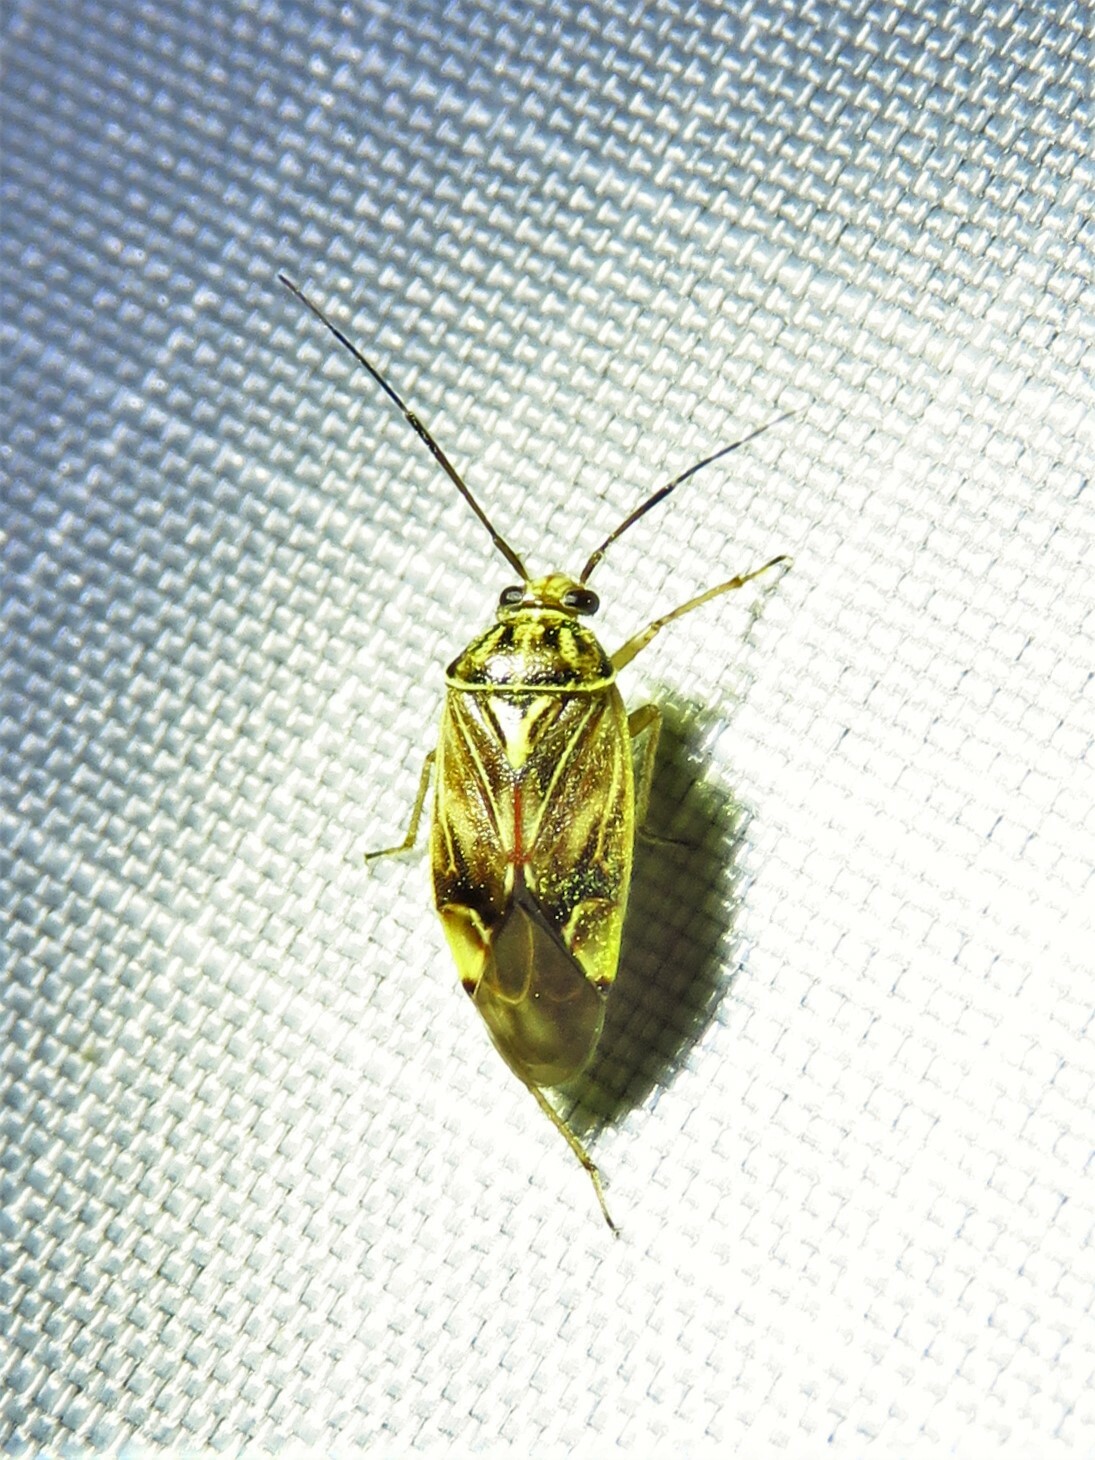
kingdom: Animalia
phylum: Arthropoda
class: Insecta
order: Hemiptera
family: Miridae
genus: Lygus
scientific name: Lygus lineolaris
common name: North american tarnished plant bug
